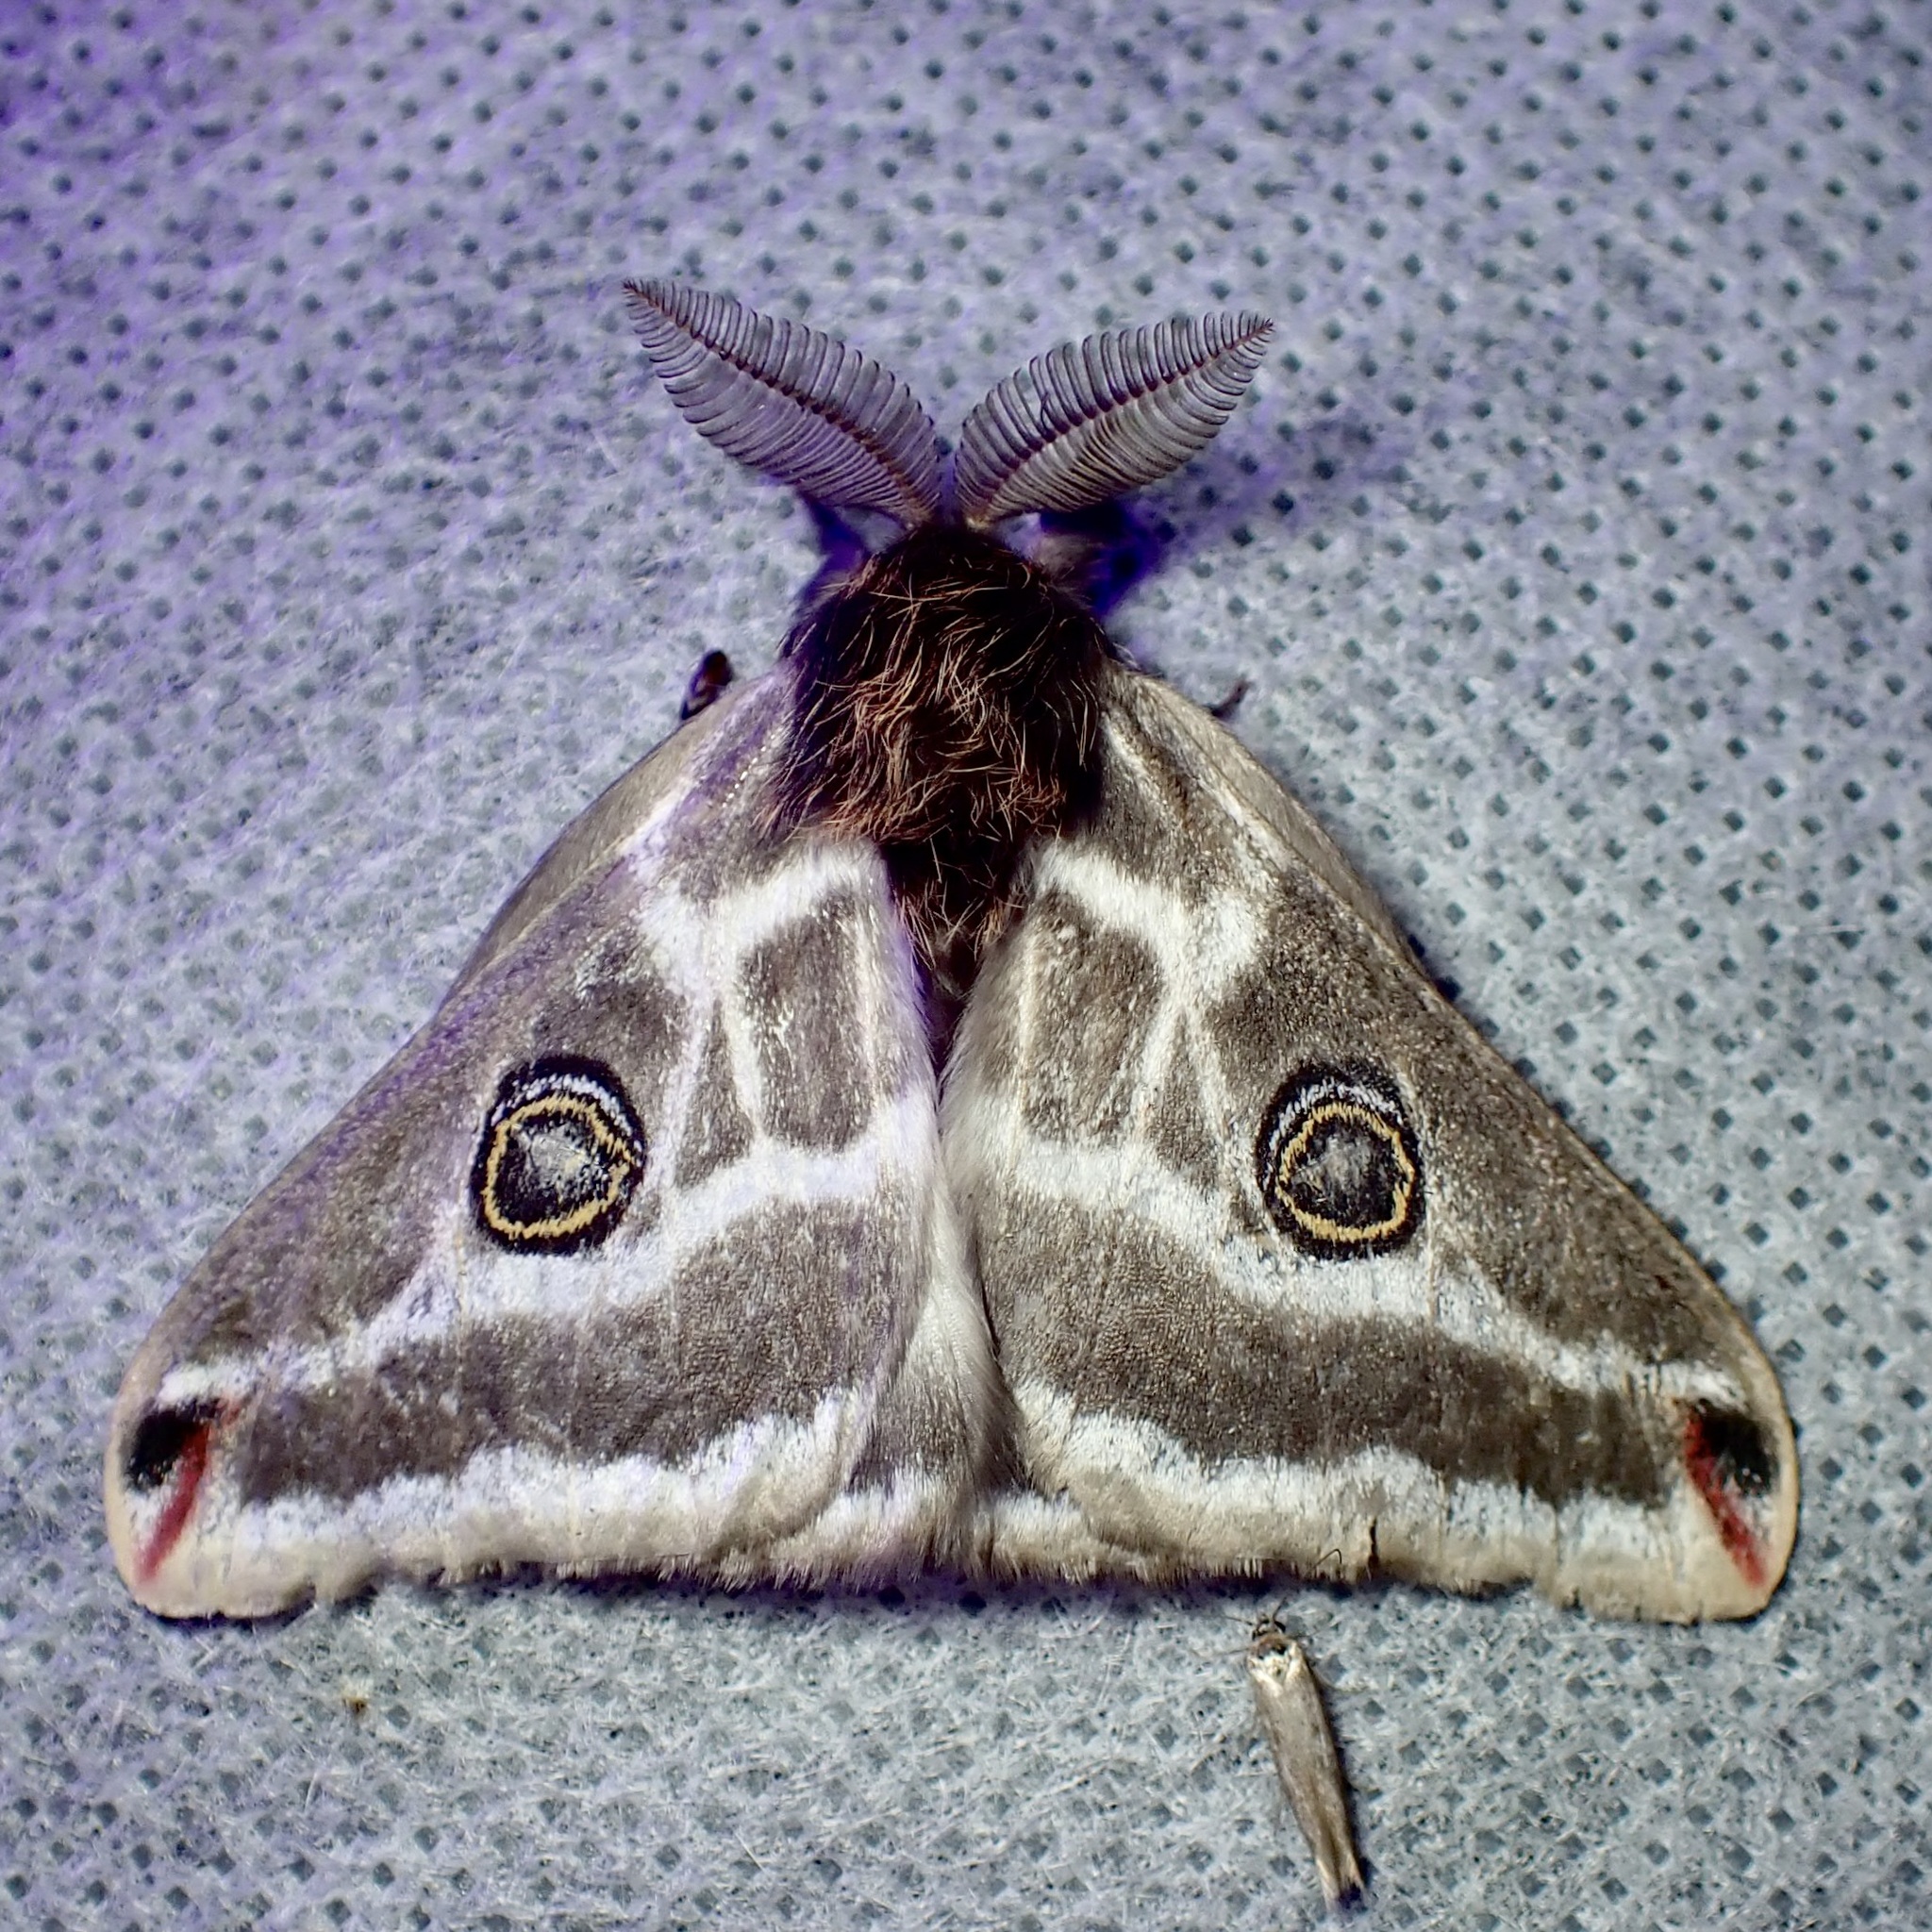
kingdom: Animalia
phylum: Arthropoda
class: Insecta
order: Lepidoptera
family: Saturniidae
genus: Saturnia
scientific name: Saturnia anona
